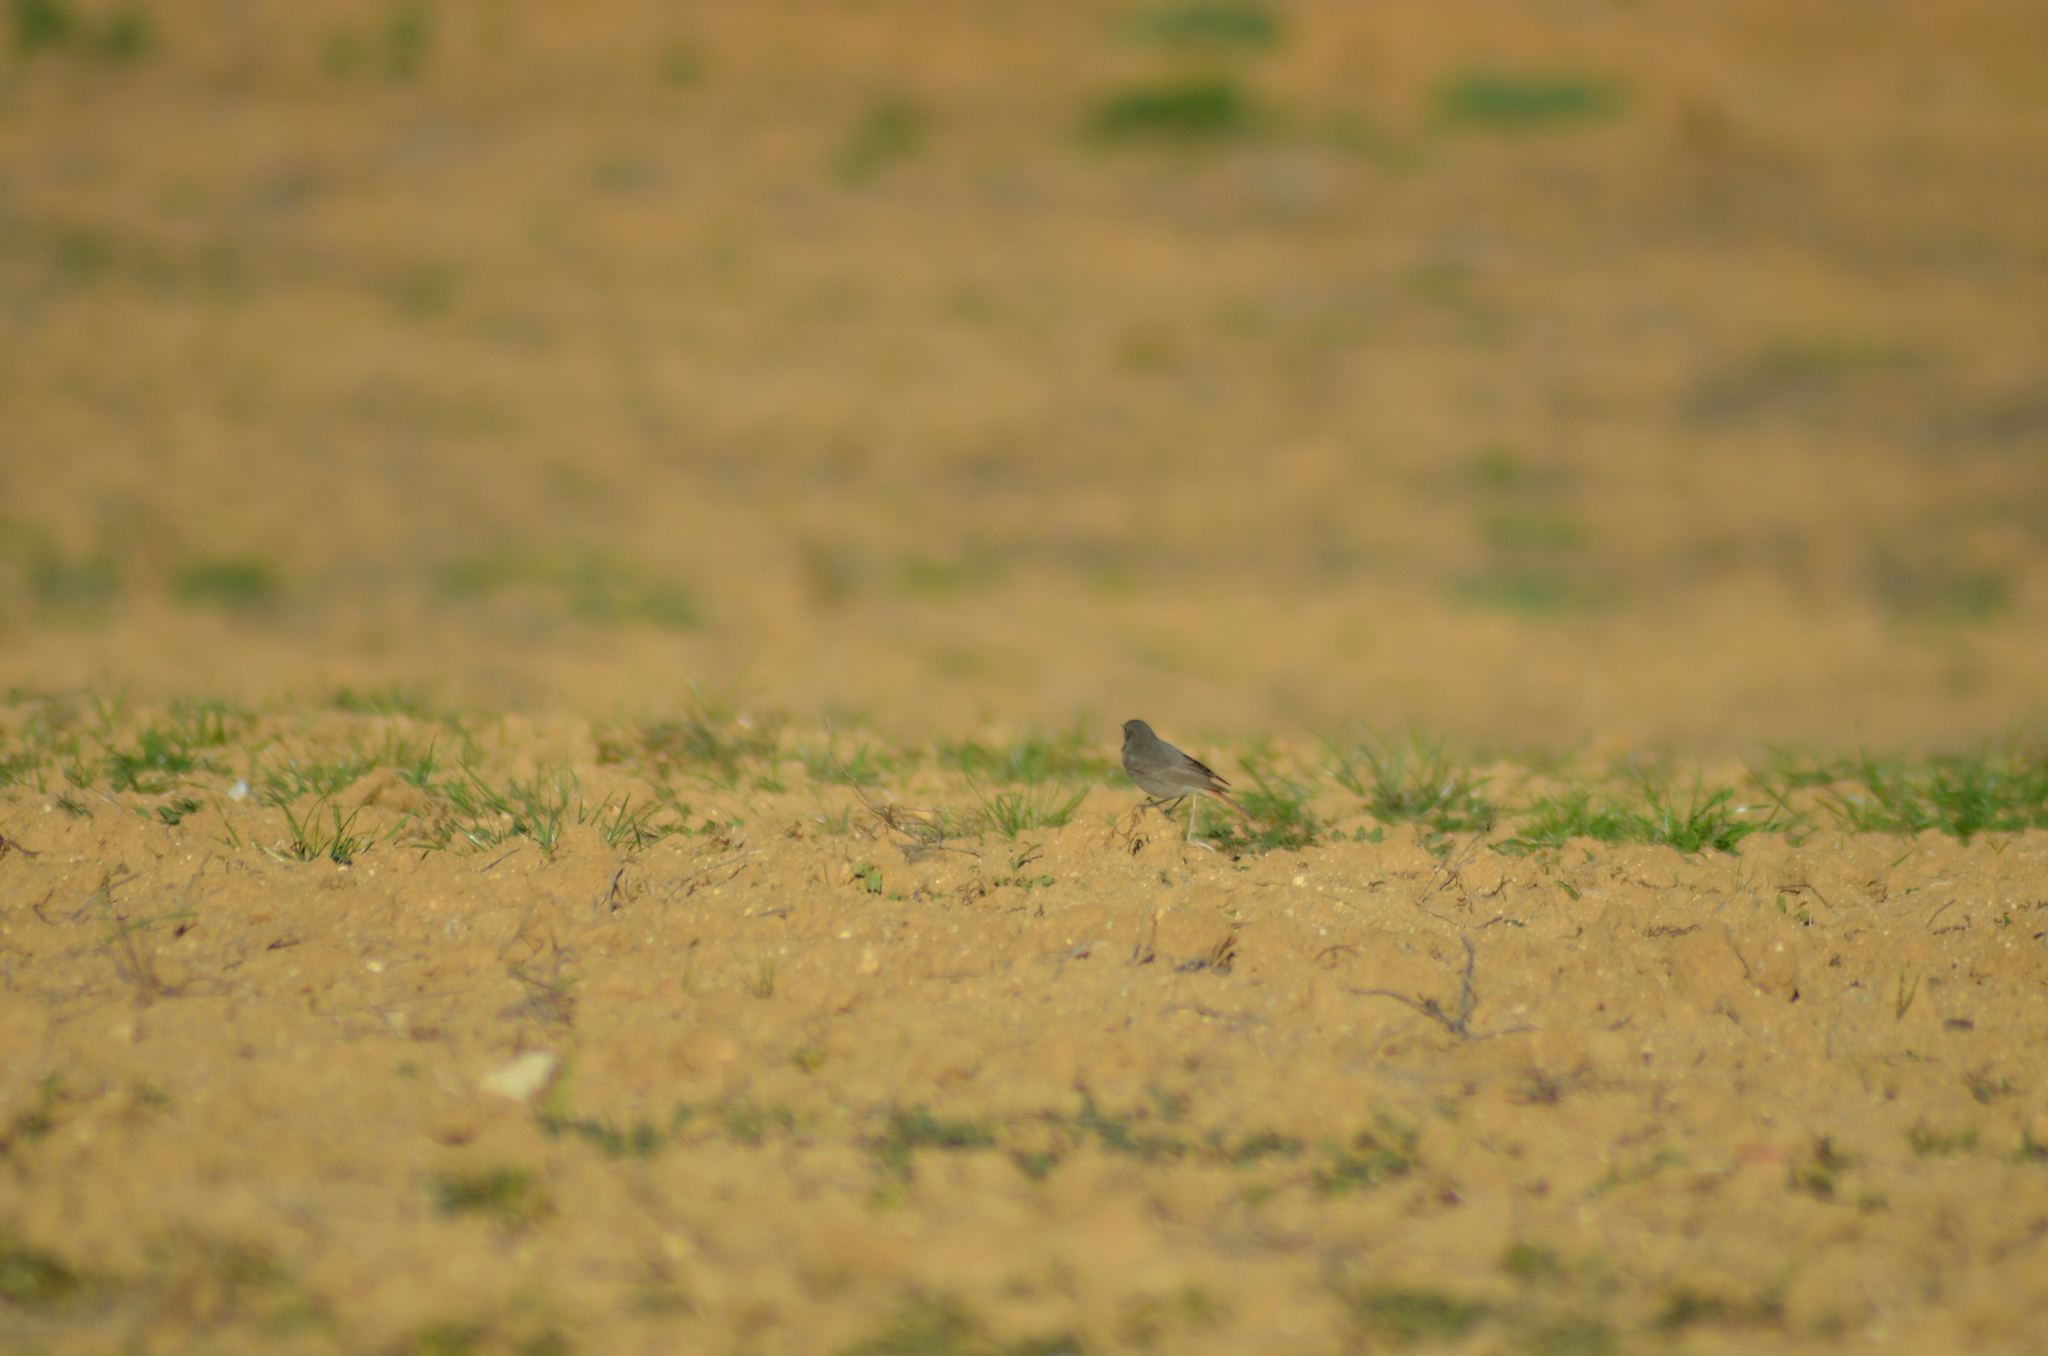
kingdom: Animalia
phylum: Chordata
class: Aves
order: Passeriformes
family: Muscicapidae
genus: Phoenicurus
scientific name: Phoenicurus ochruros
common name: Black redstart
